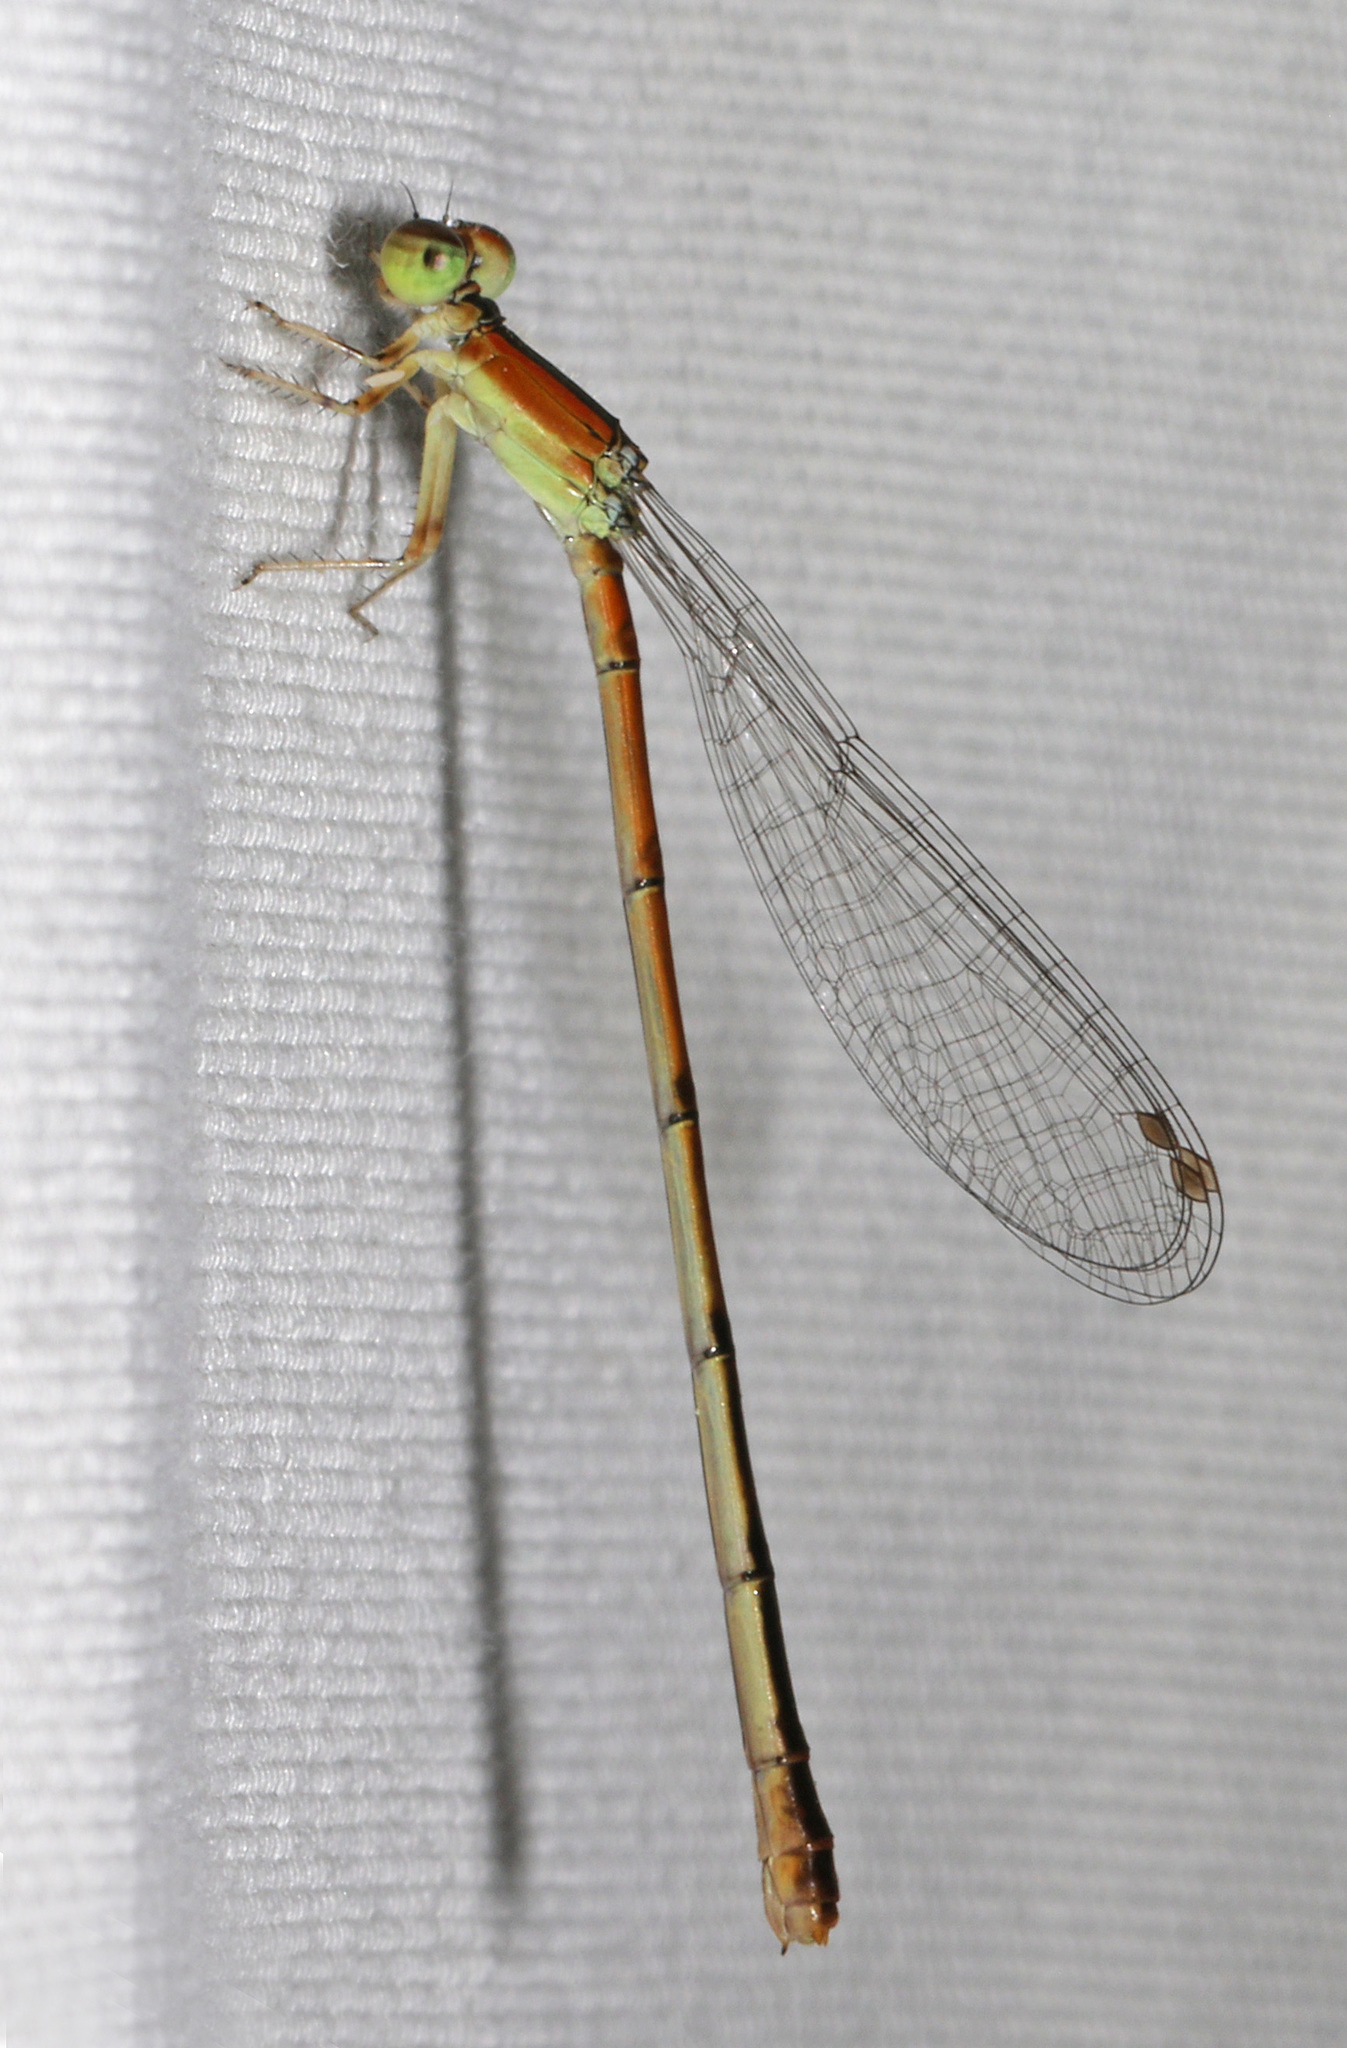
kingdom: Animalia
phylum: Arthropoda
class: Insecta
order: Odonata
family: Coenagrionidae
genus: Ischnura
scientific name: Ischnura hastata
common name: Citrine forktail
